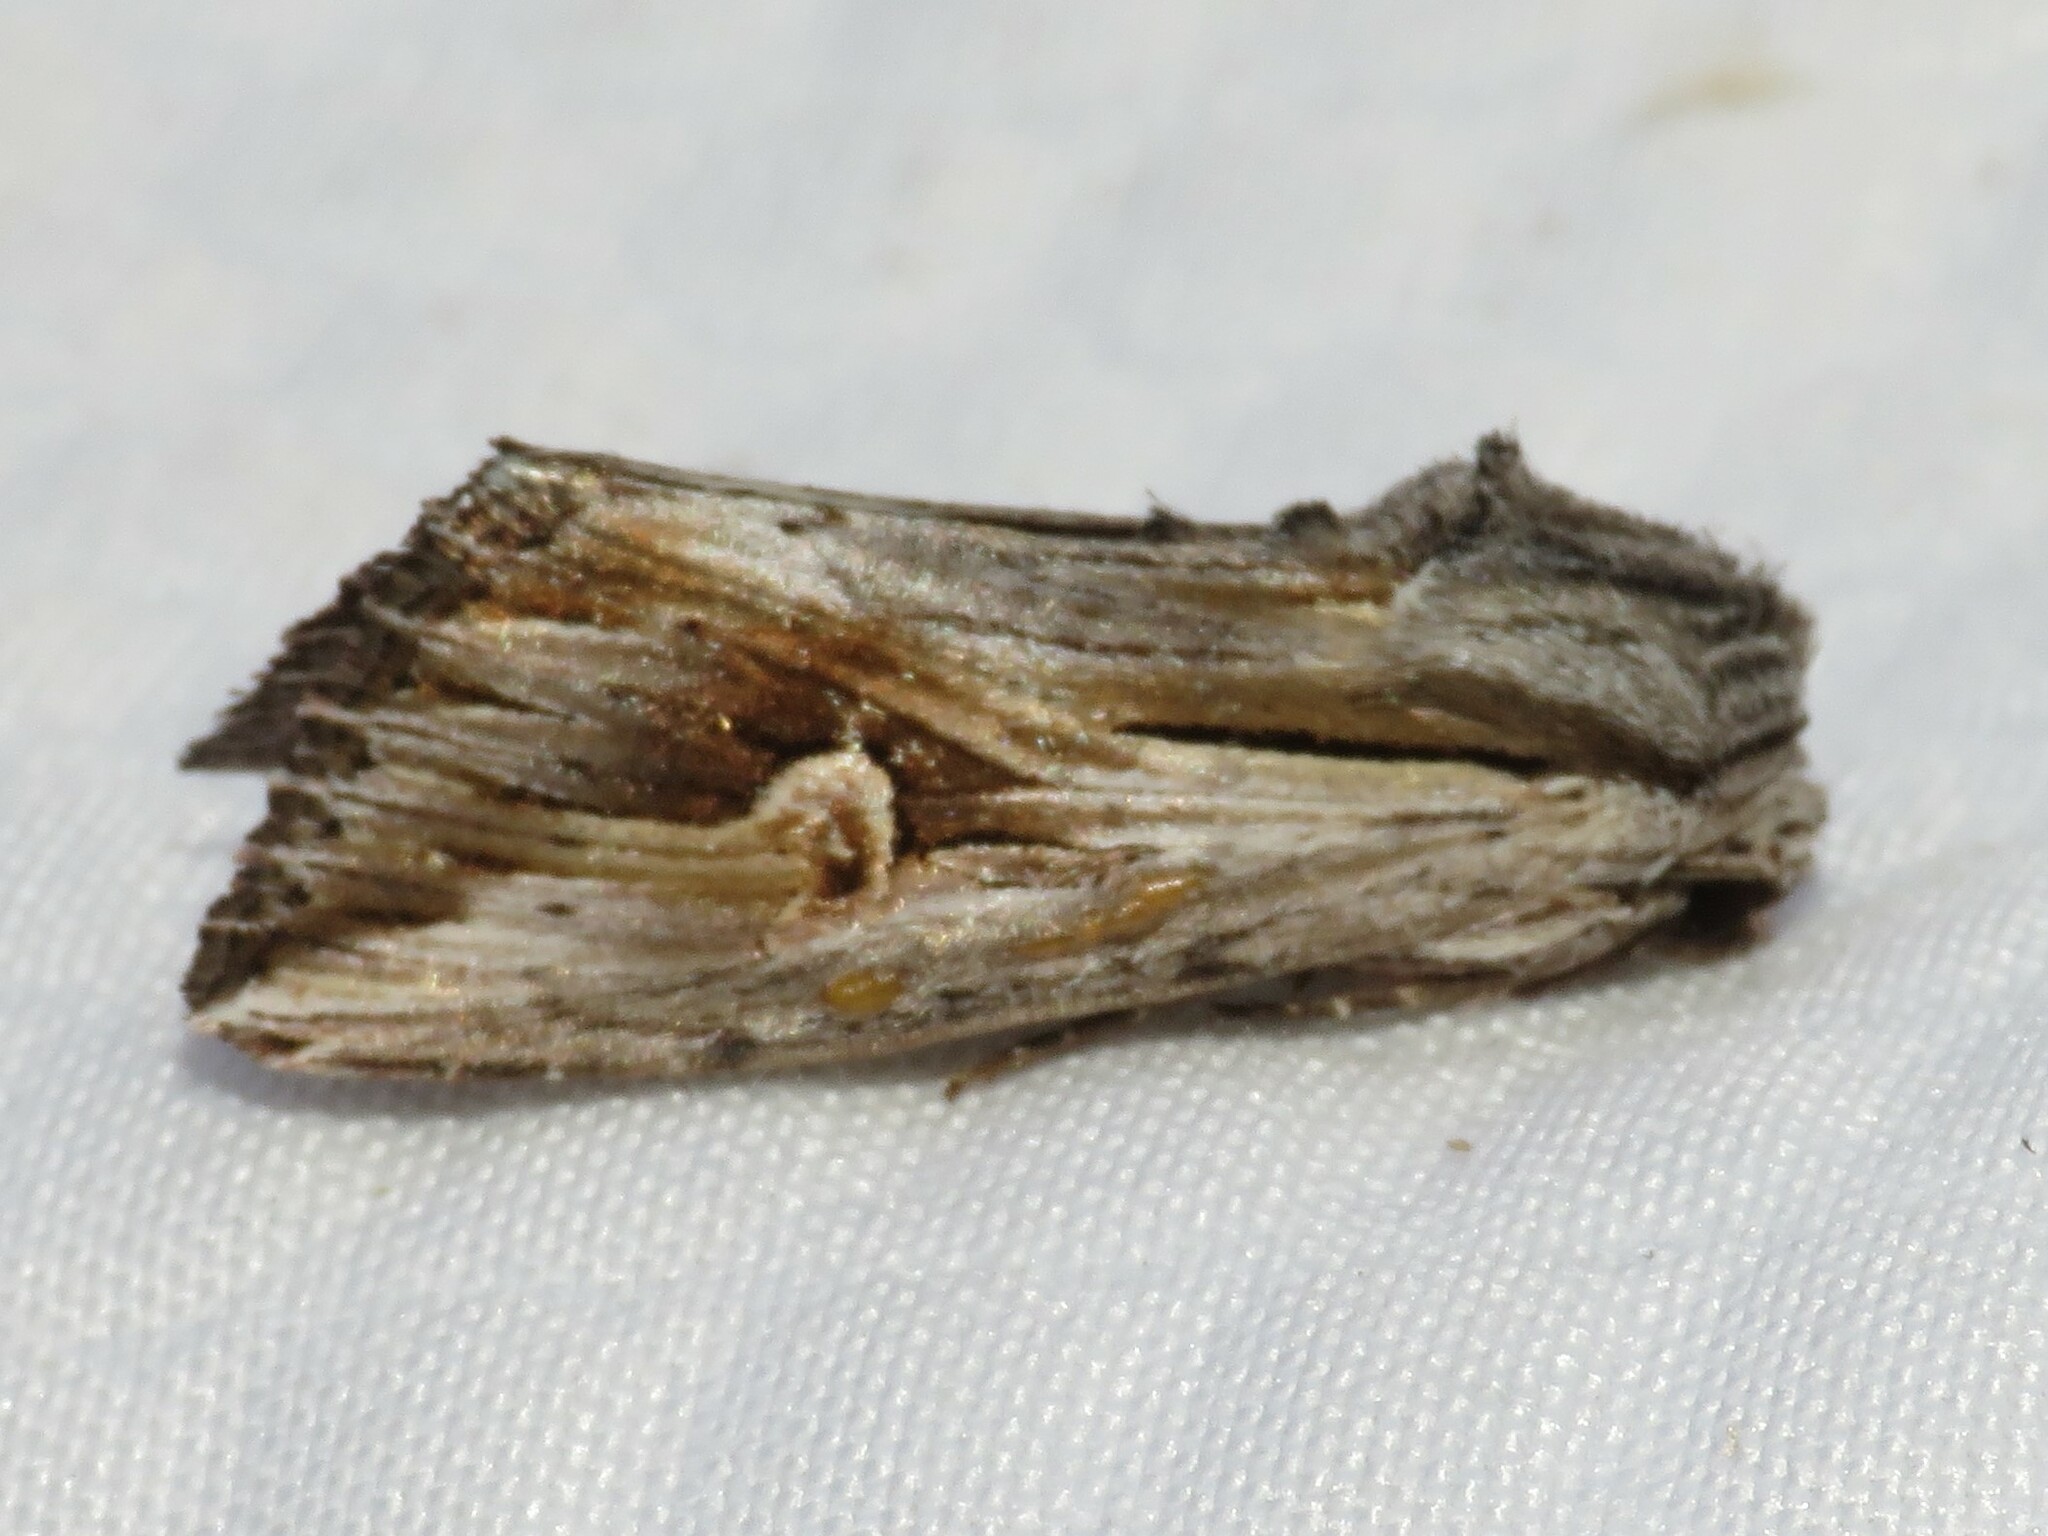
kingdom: Animalia
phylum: Arthropoda
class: Insecta
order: Lepidoptera
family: Noctuidae
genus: Nedra
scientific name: Nedra ramosula
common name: Gray half-spot
